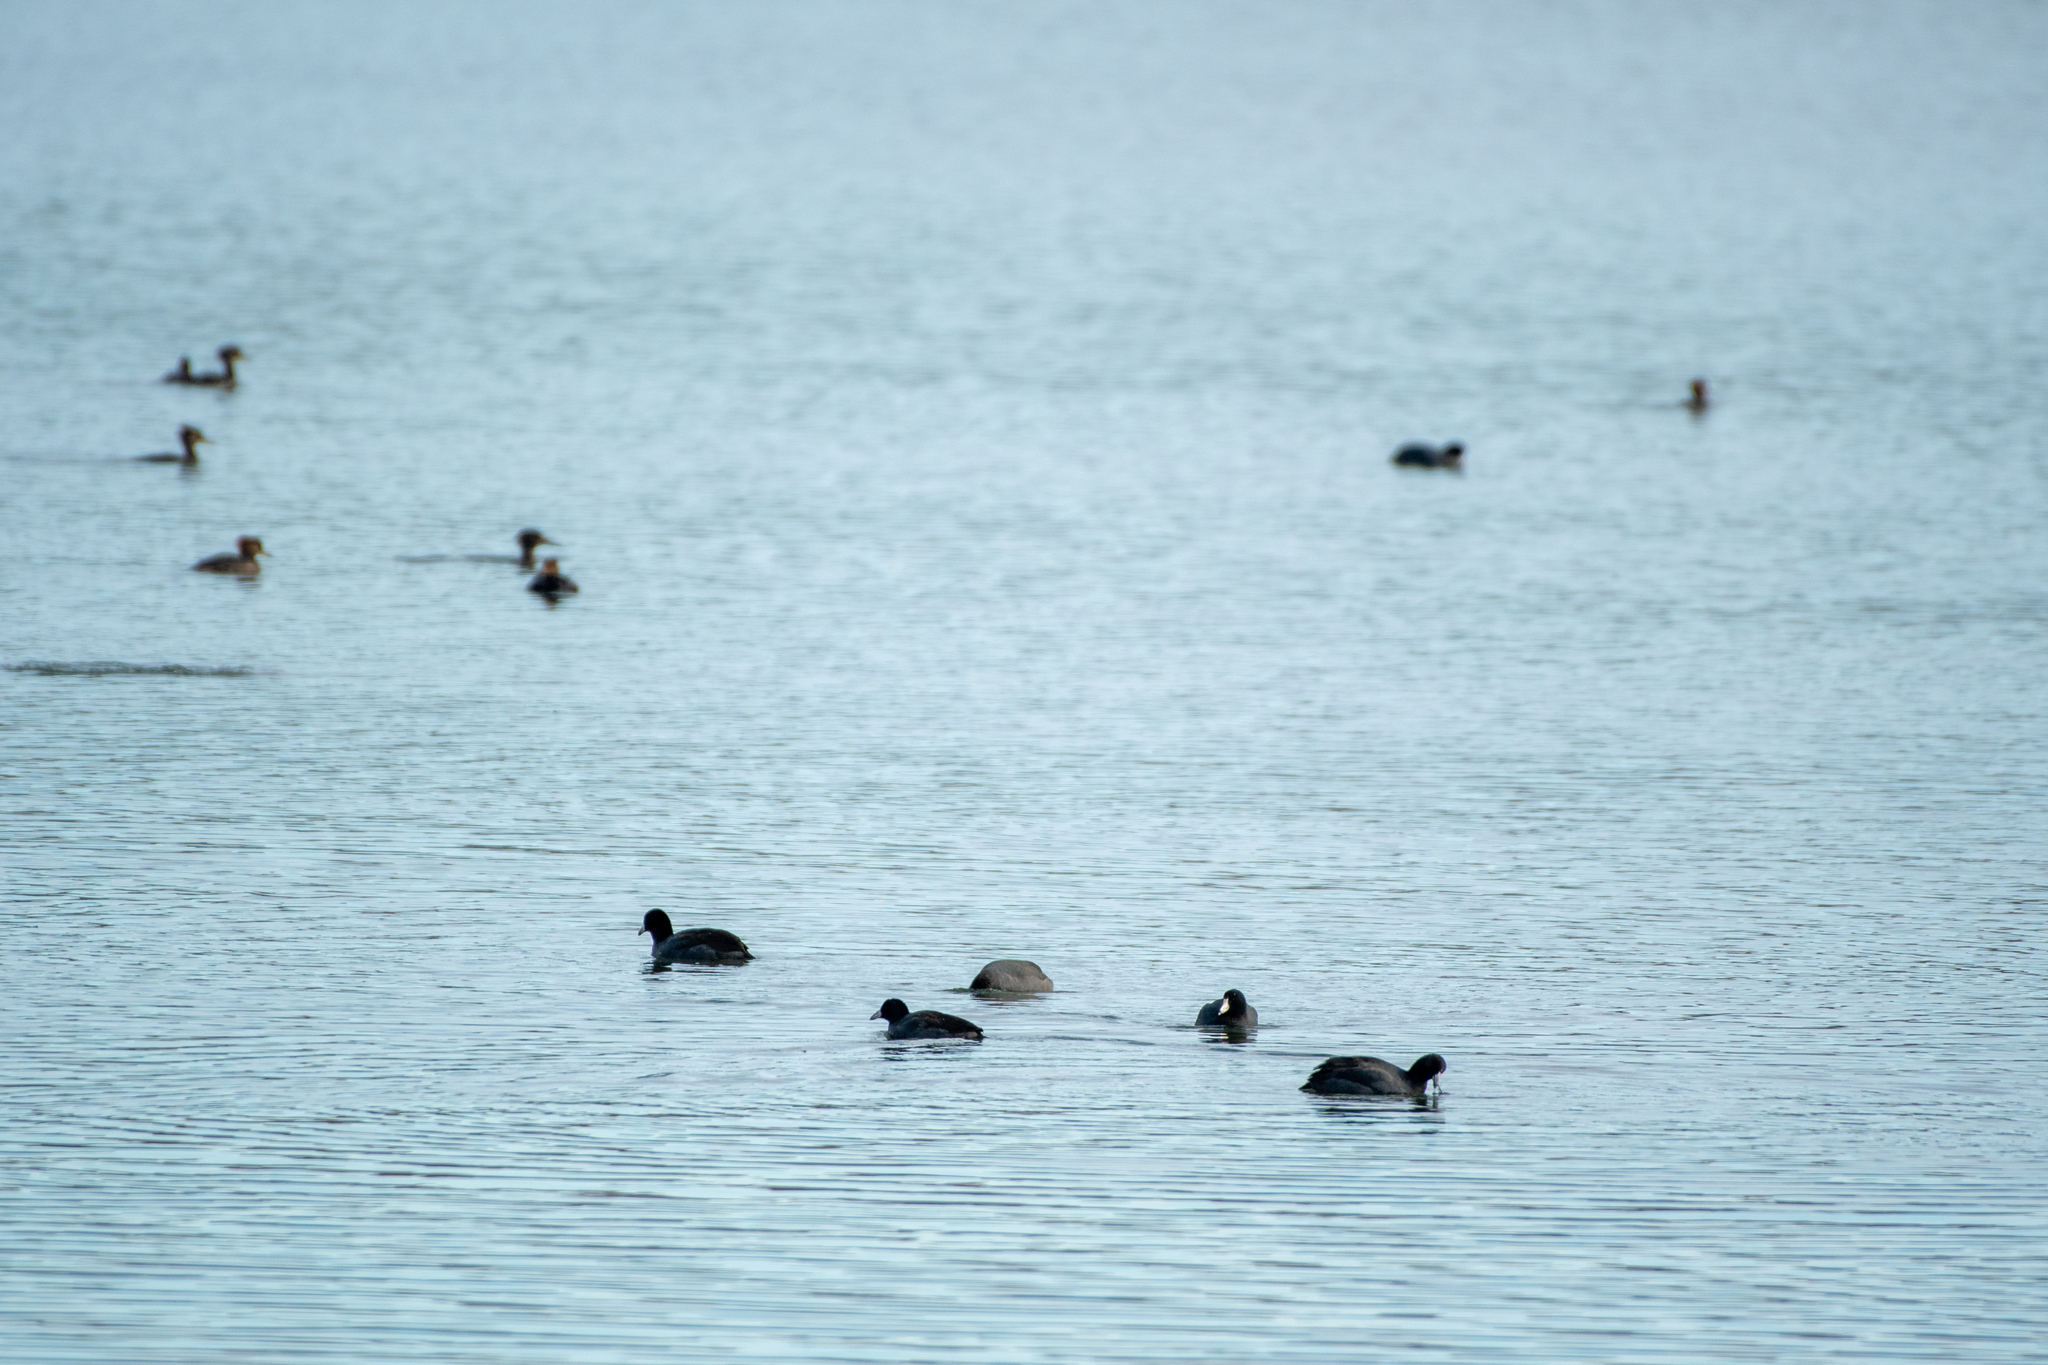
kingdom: Animalia
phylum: Chordata
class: Aves
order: Gruiformes
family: Rallidae
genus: Fulica
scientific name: Fulica americana
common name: American coot
